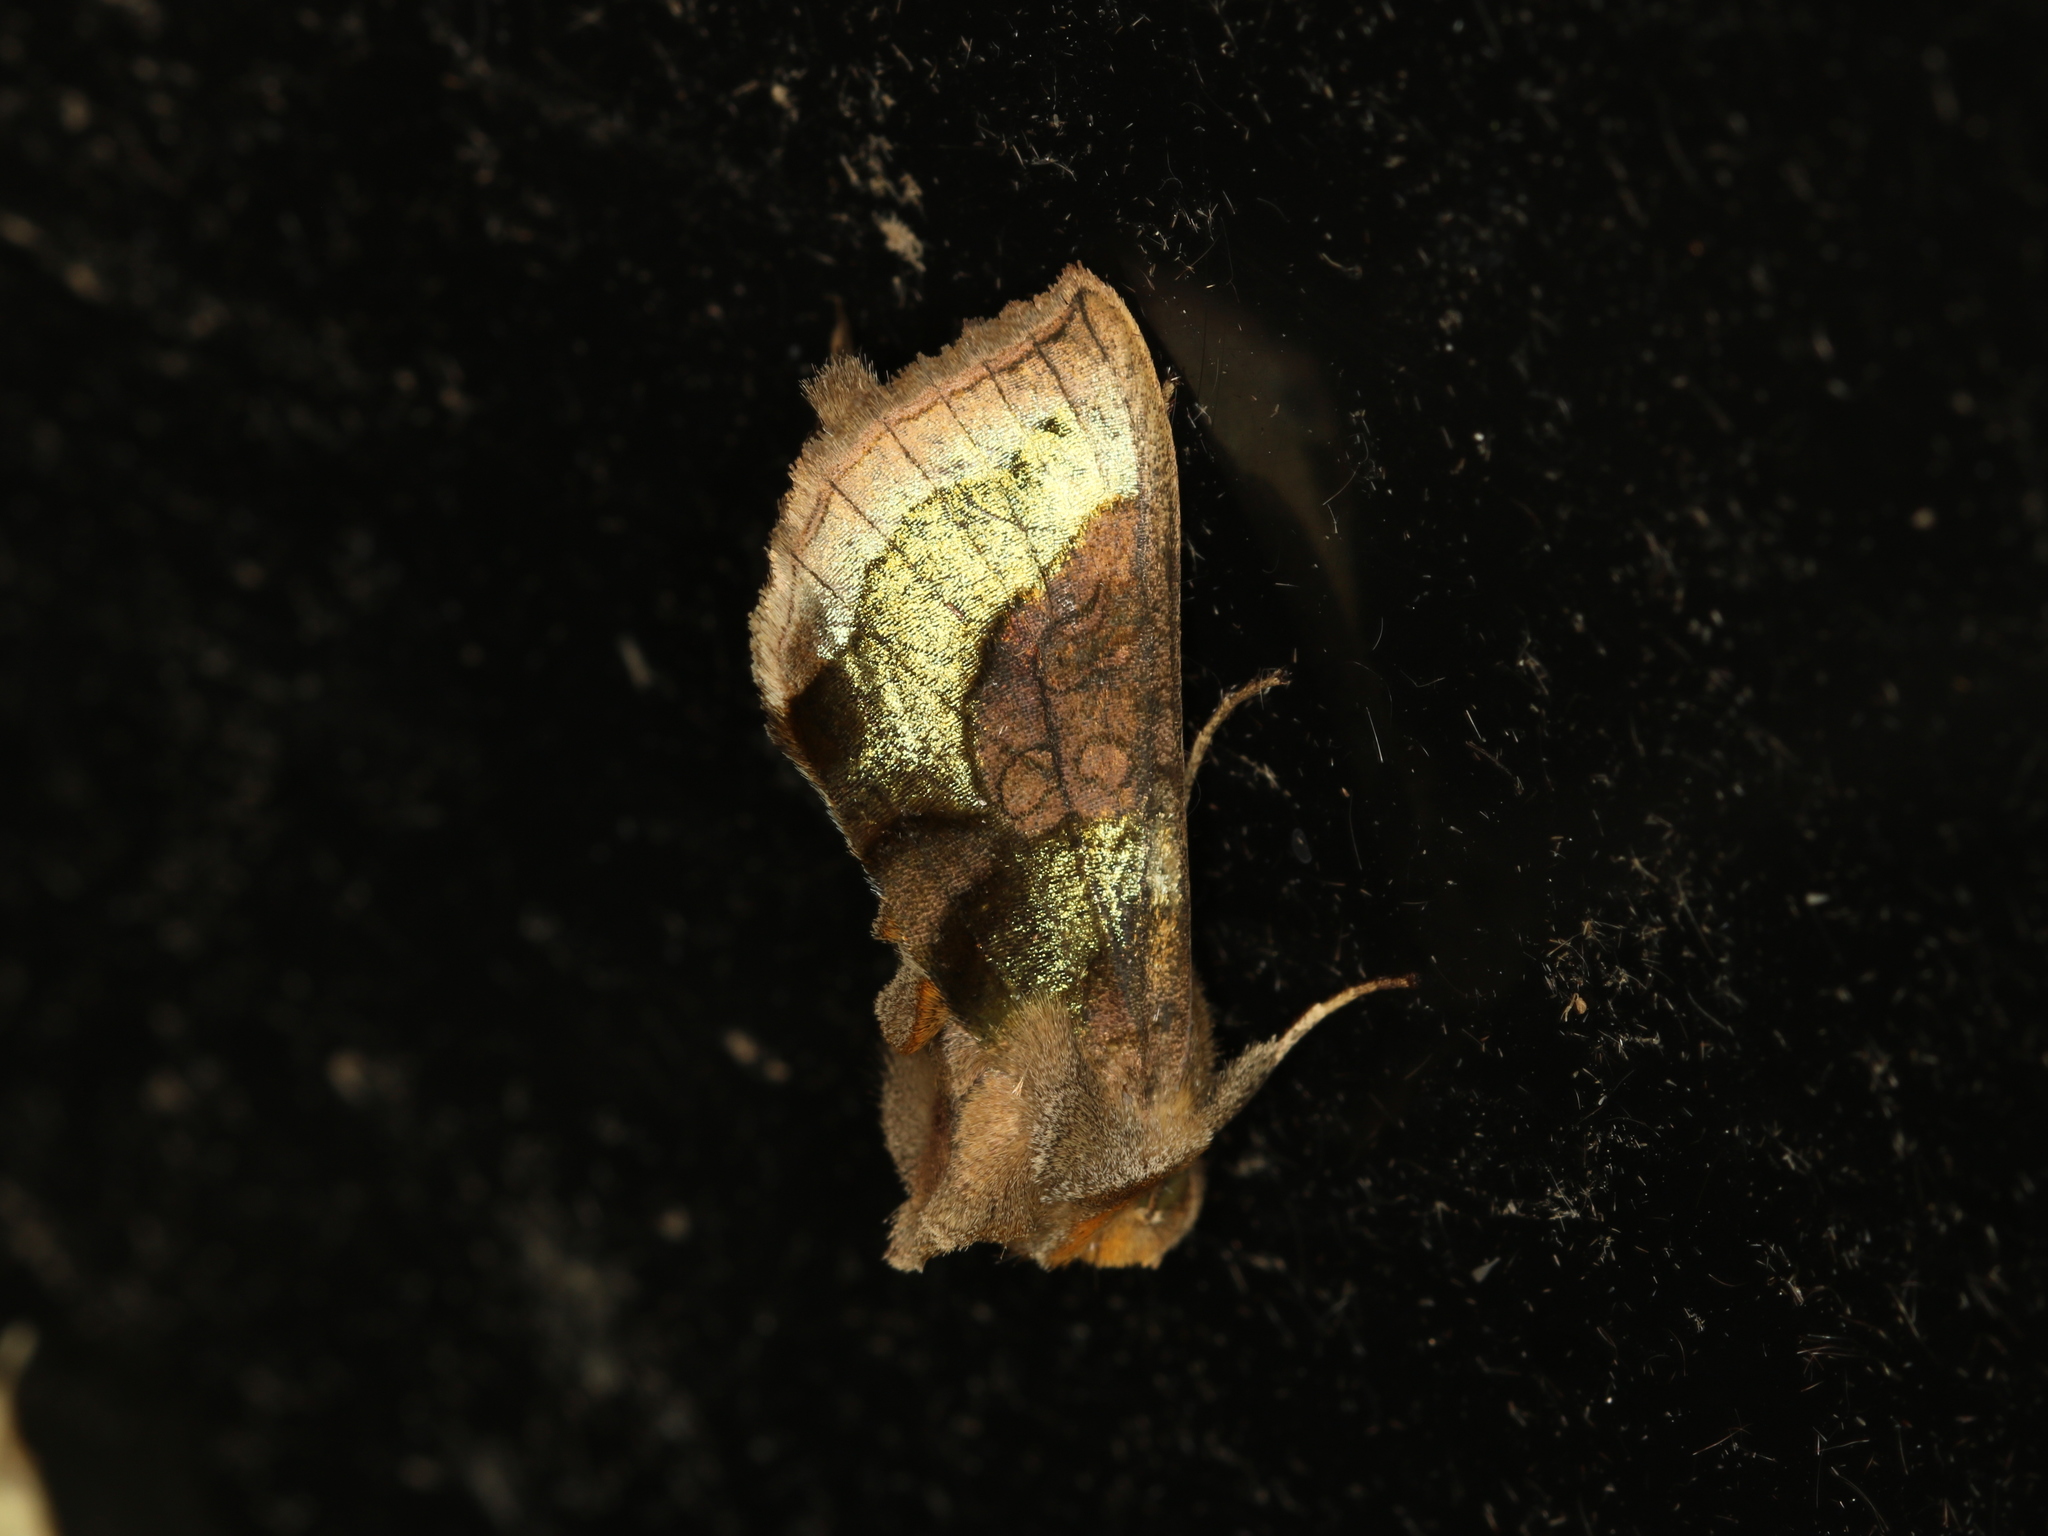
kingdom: Animalia
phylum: Arthropoda
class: Insecta
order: Lepidoptera
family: Noctuidae
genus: Diachrysia
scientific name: Diachrysia chrysitis
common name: Burnished brass
